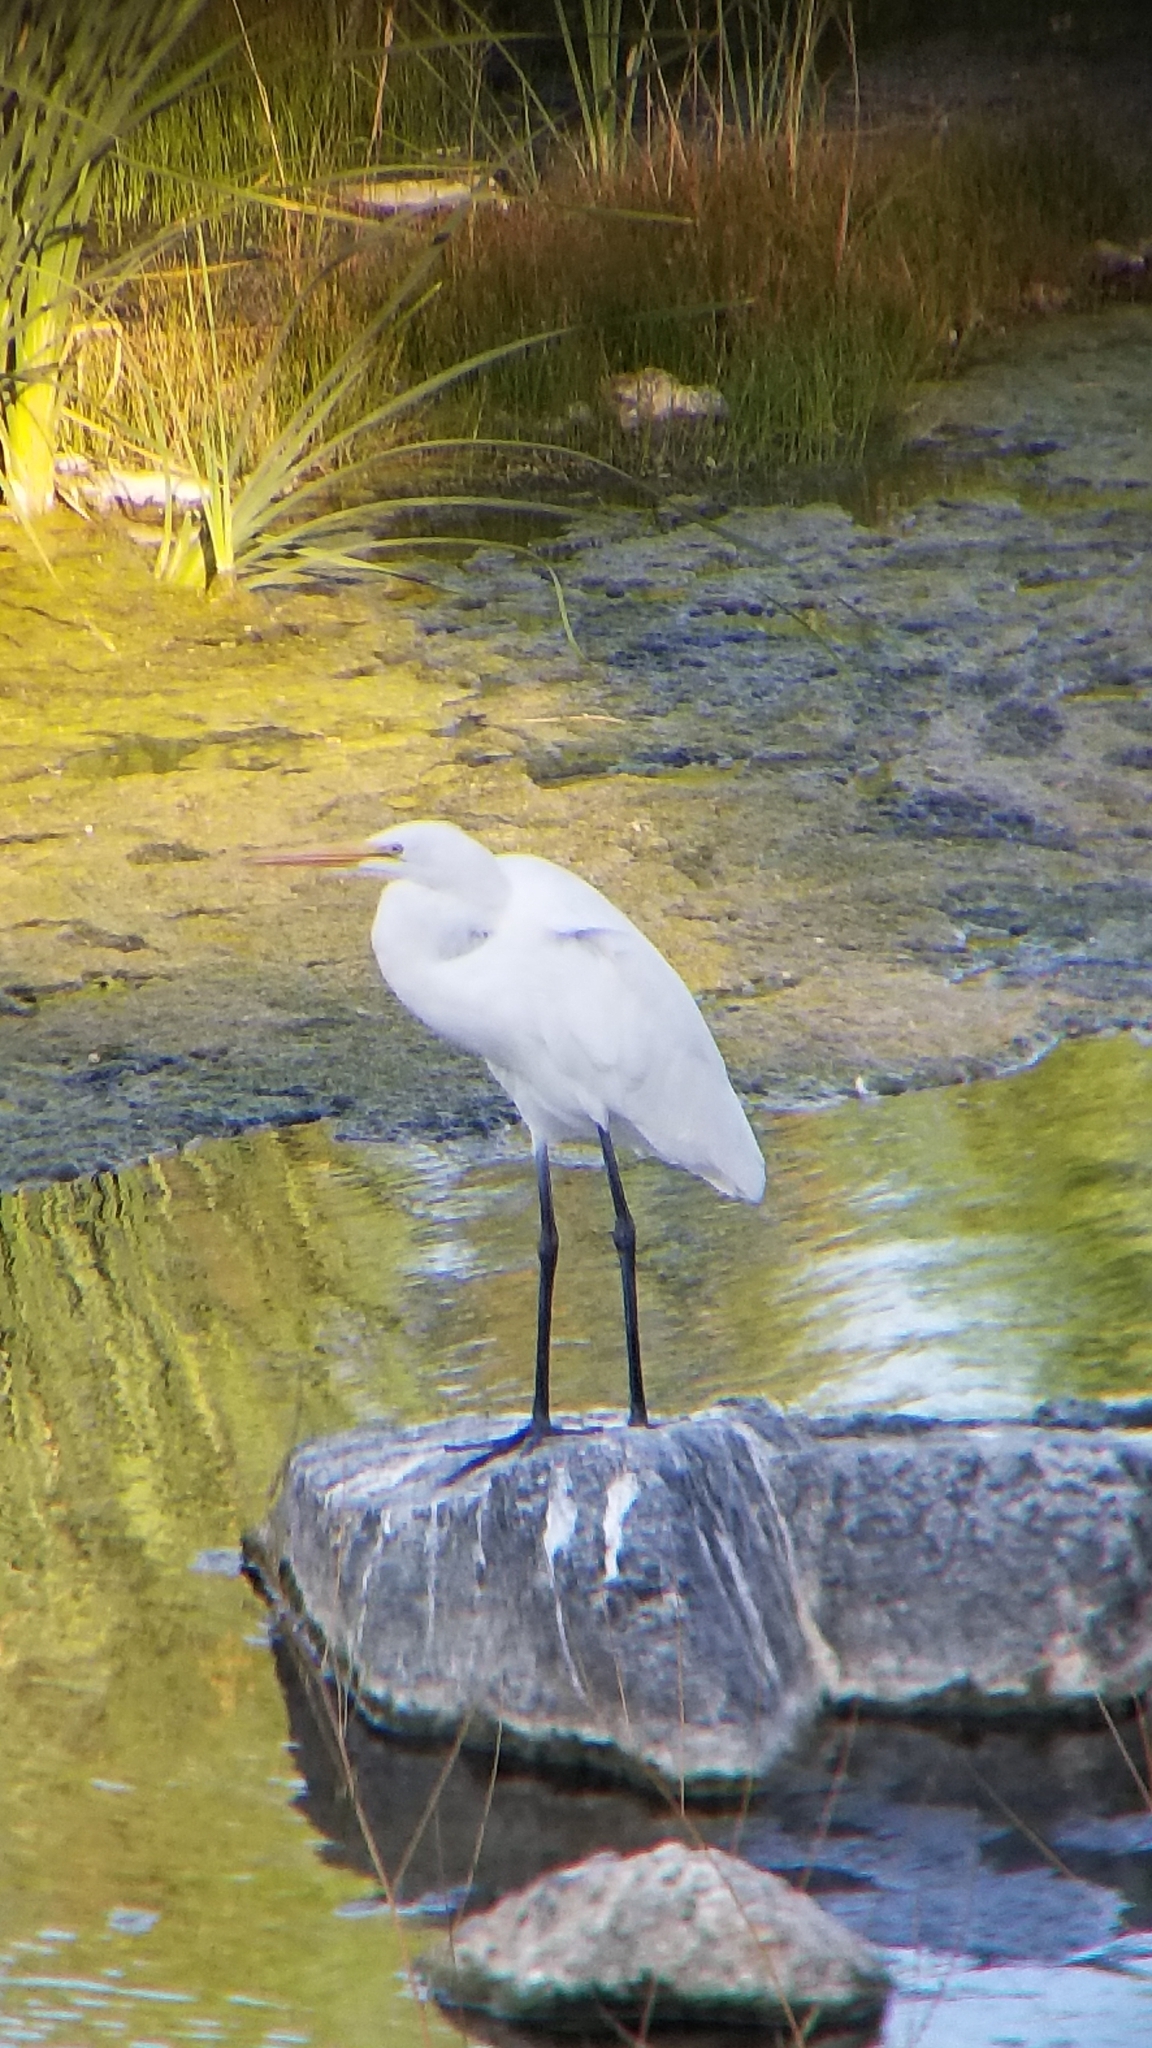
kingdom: Animalia
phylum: Chordata
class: Aves
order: Pelecaniformes
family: Ardeidae
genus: Ardea
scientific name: Ardea alba
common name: Great egret
